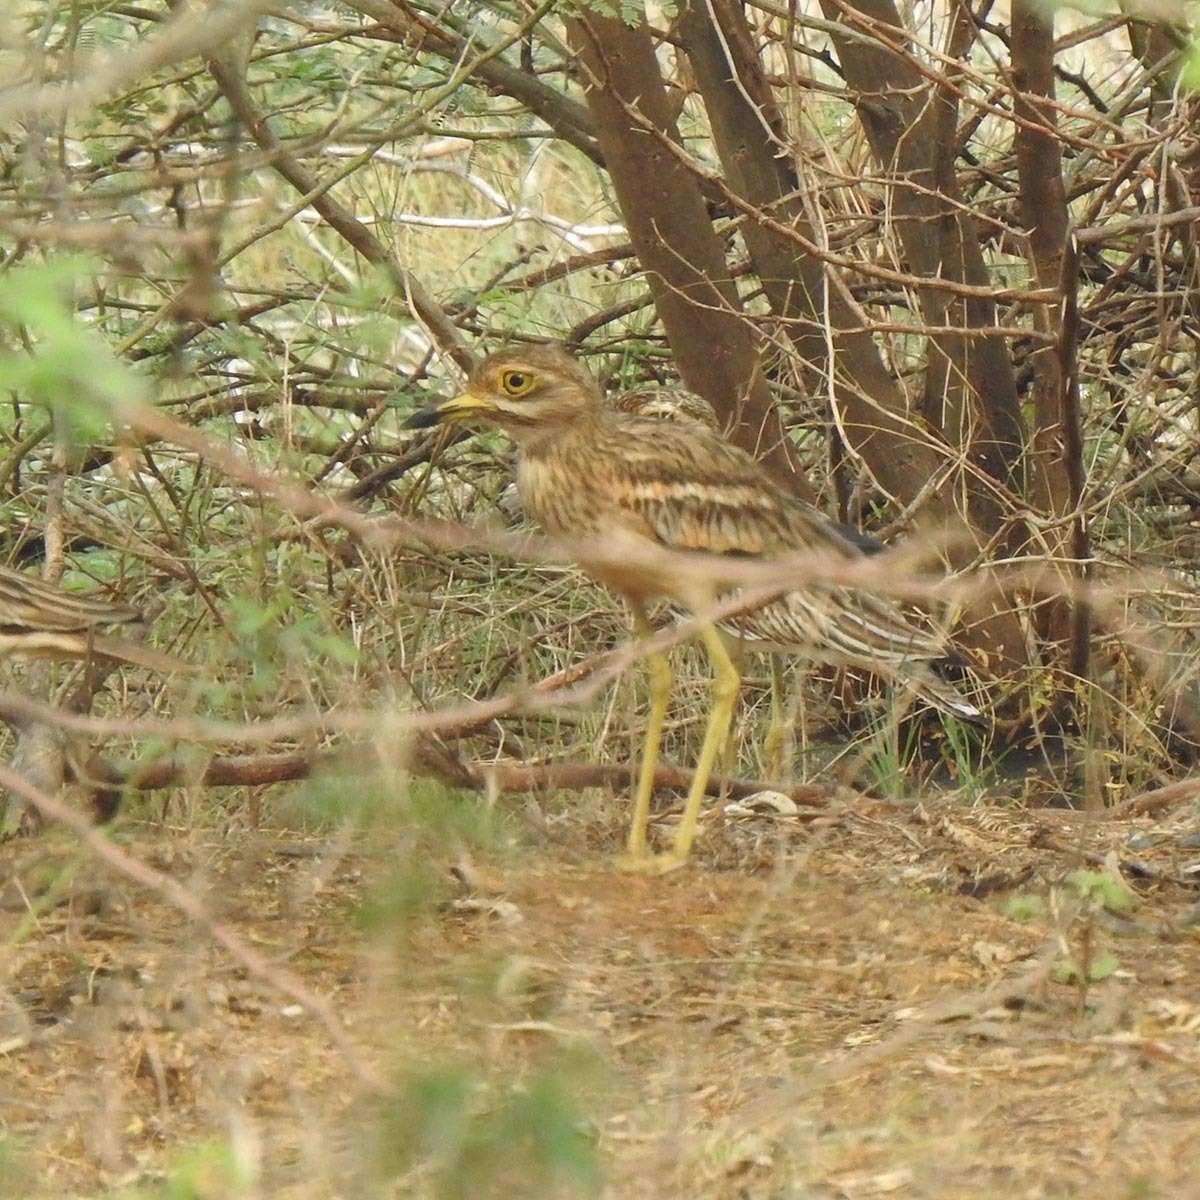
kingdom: Animalia
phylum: Chordata
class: Aves
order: Charadriiformes
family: Burhinidae
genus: Burhinus
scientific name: Burhinus indicus
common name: Indian thick-knee
